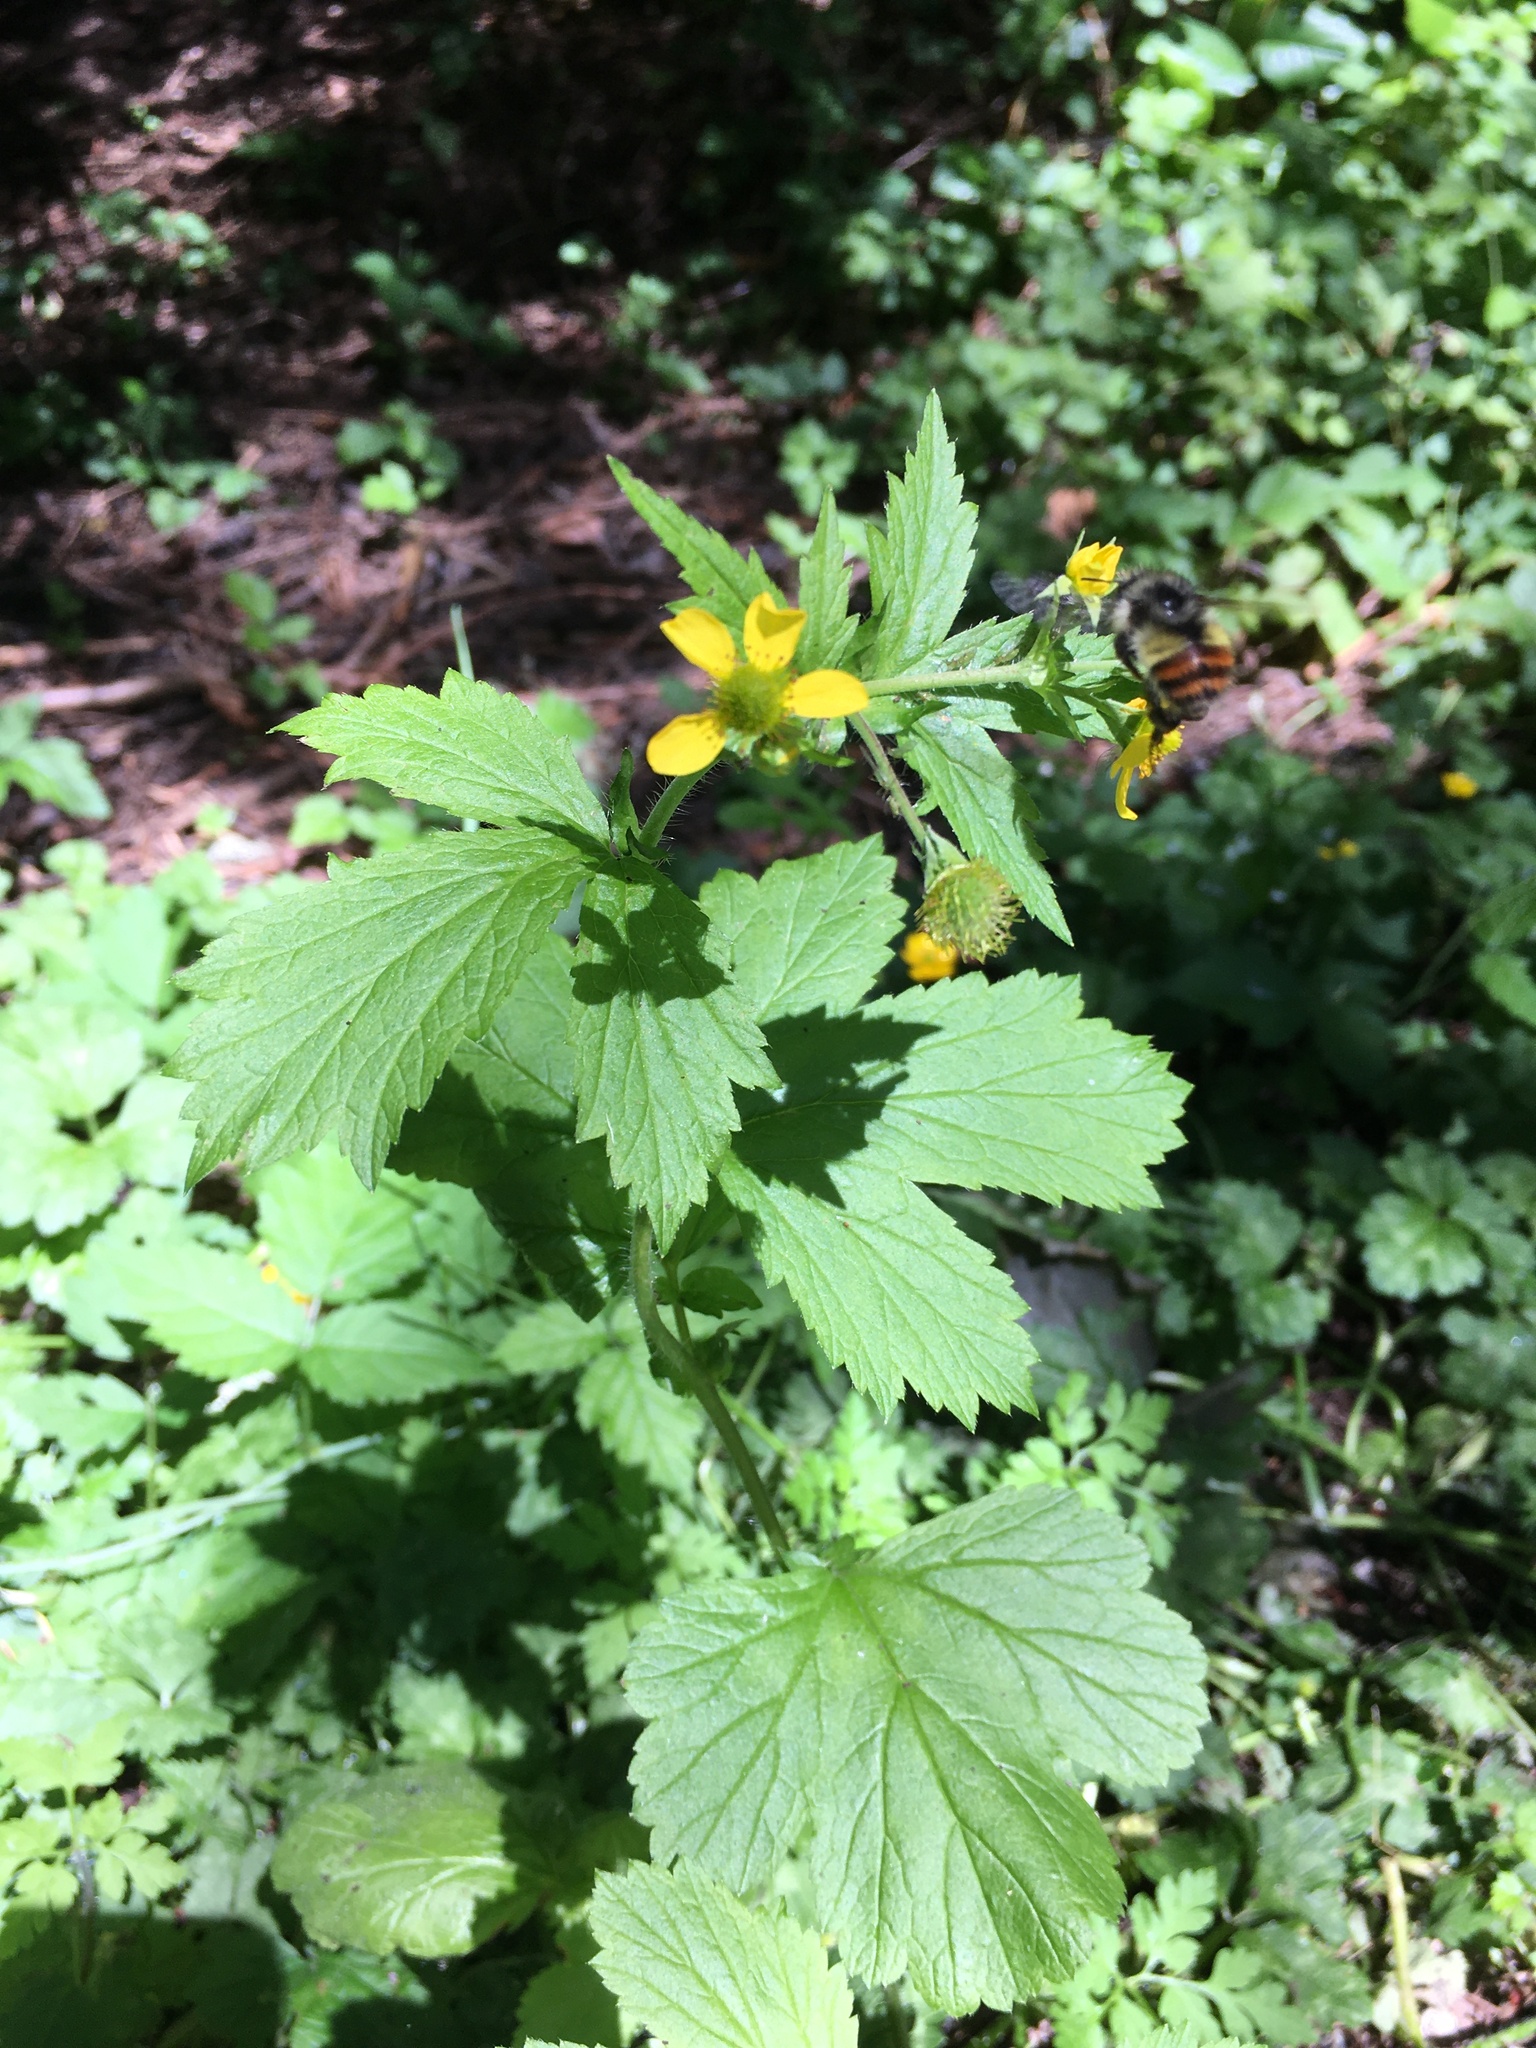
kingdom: Plantae
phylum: Tracheophyta
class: Magnoliopsida
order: Rosales
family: Rosaceae
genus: Geum
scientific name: Geum macrophyllum
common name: Large-leaved avens
